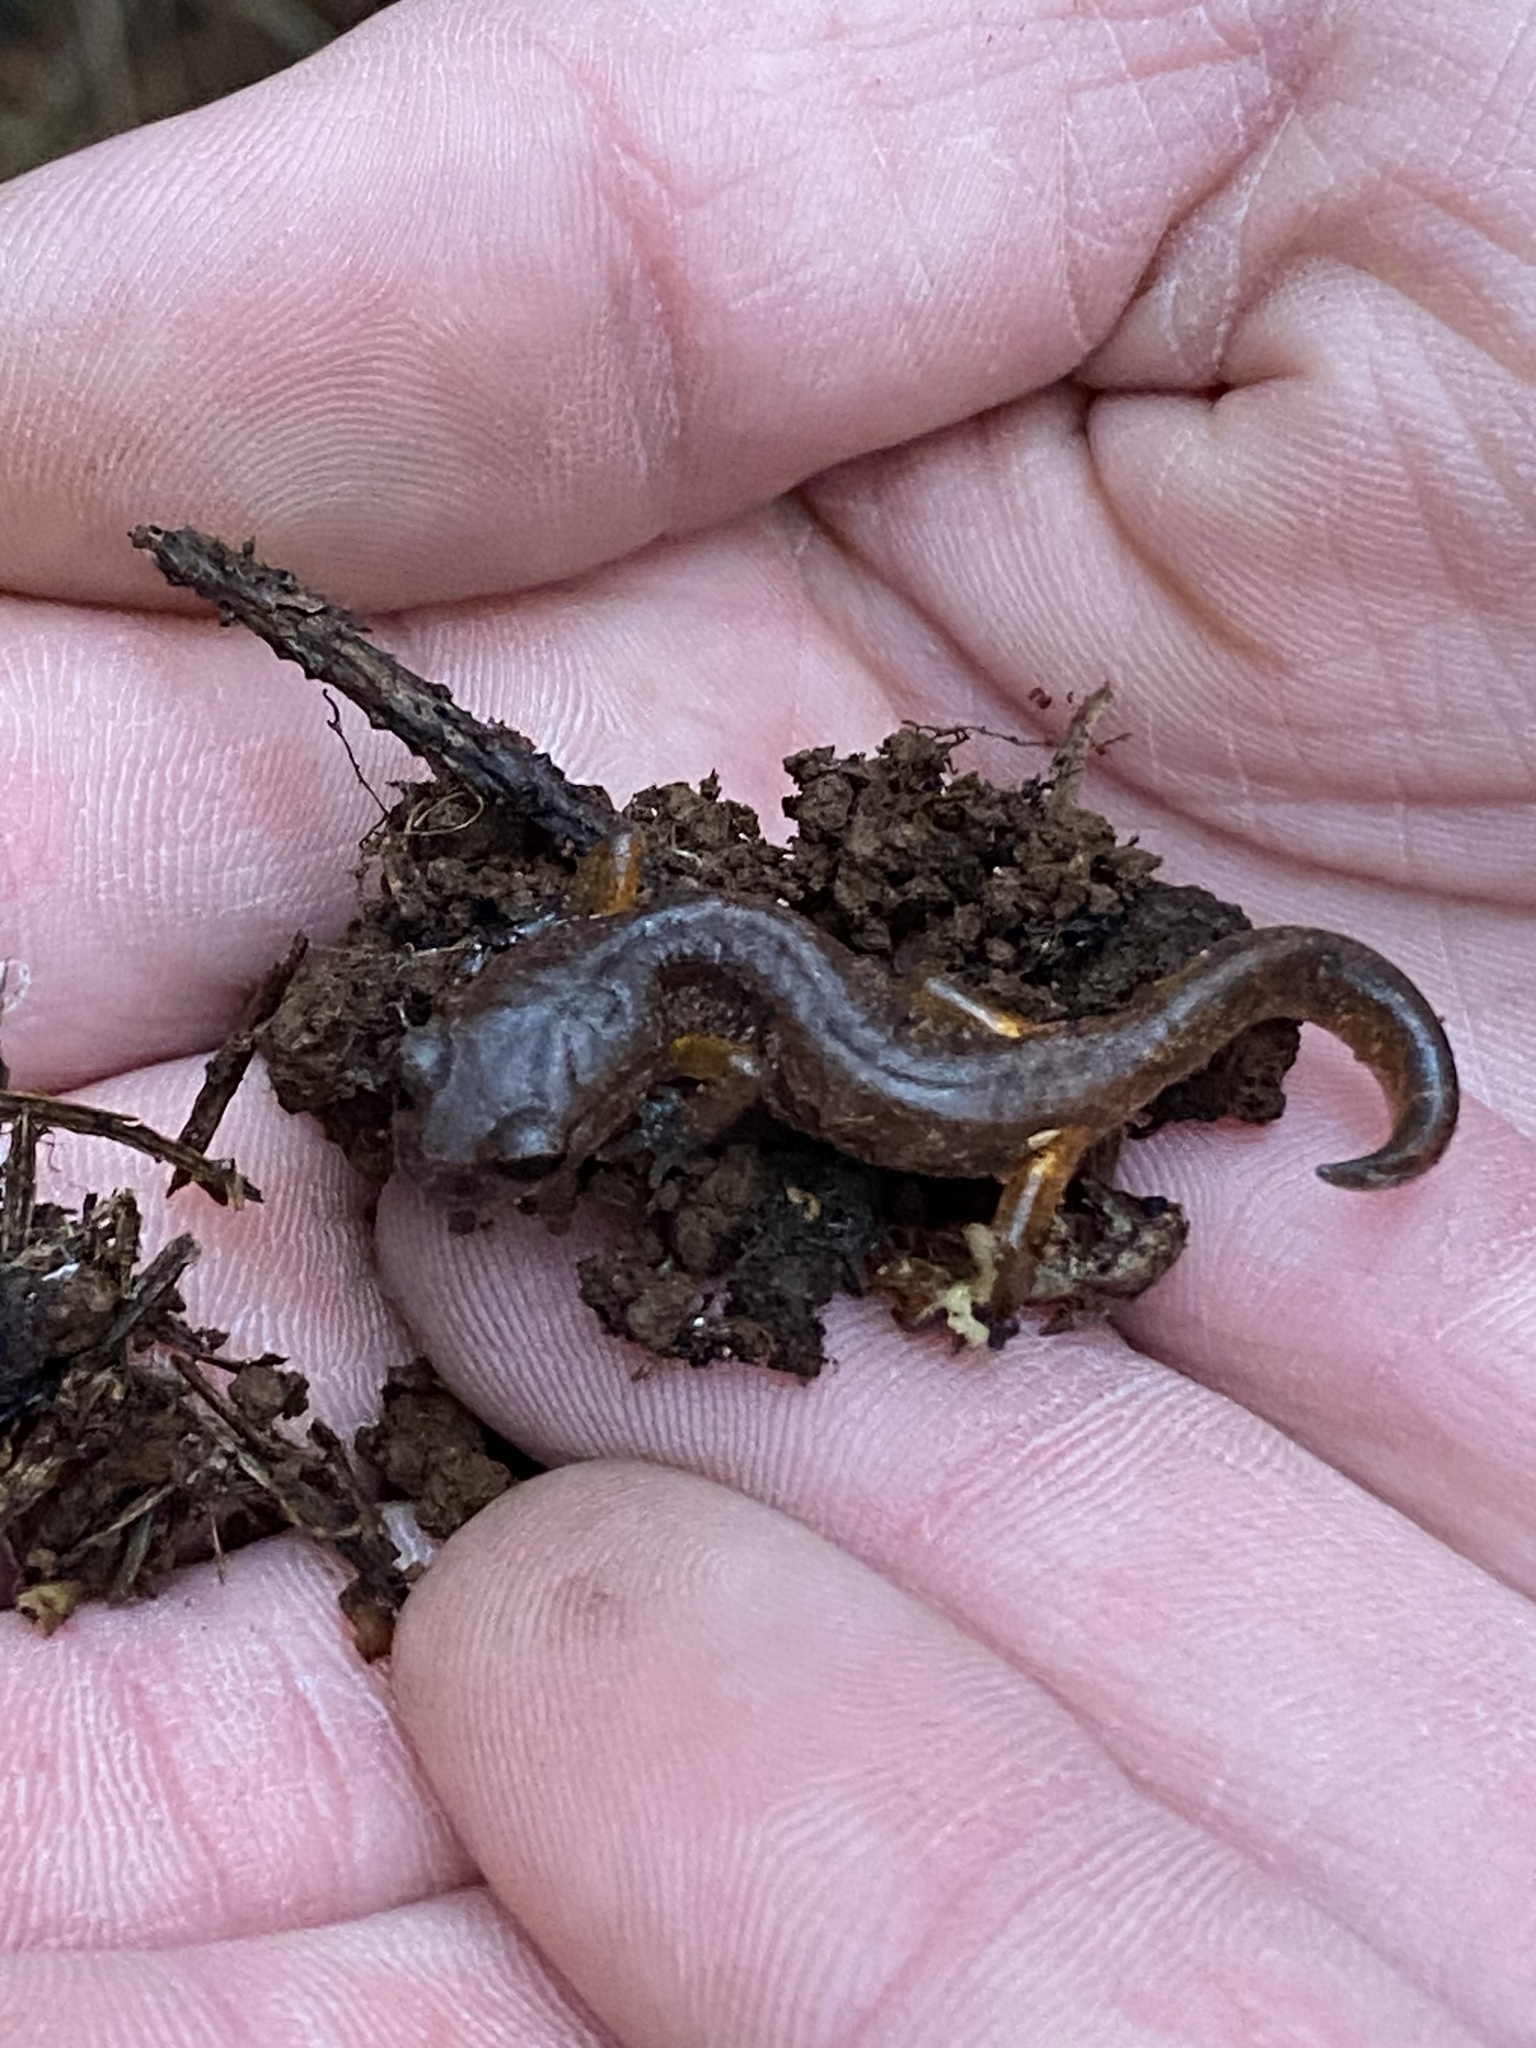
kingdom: Animalia
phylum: Chordata
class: Amphibia
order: Caudata
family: Plethodontidae
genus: Ensatina
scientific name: Ensatina eschscholtzii
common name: Ensatina
